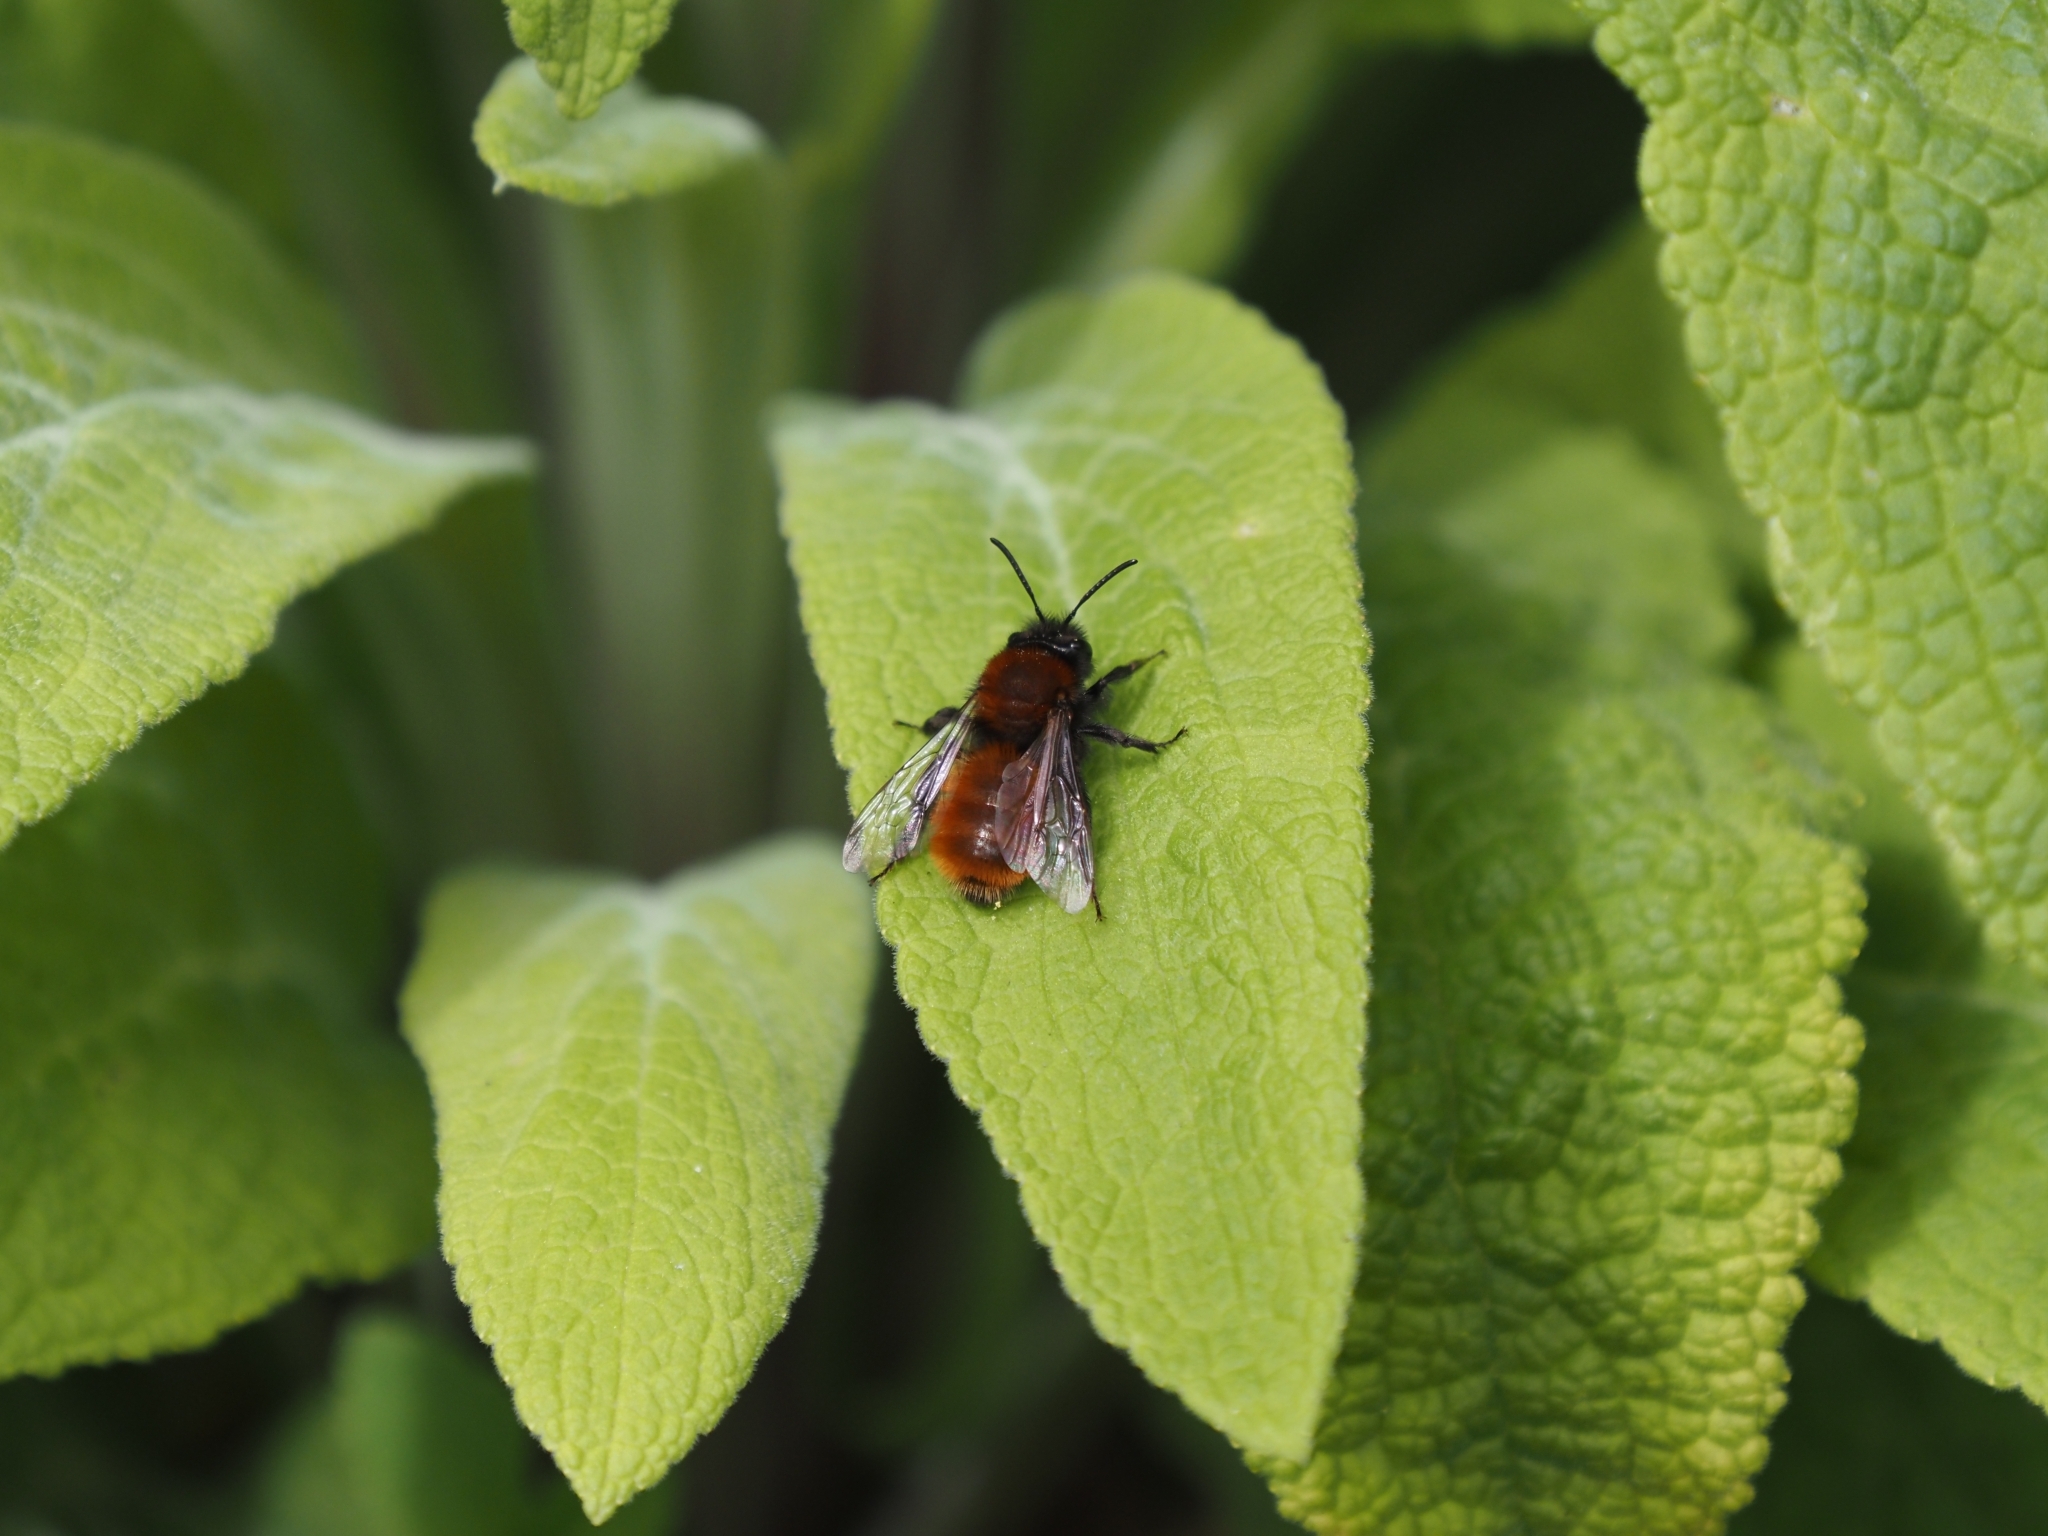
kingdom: Animalia
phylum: Arthropoda
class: Insecta
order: Hymenoptera
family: Andrenidae
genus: Andrena
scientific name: Andrena fulva
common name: Tawny mining bee
